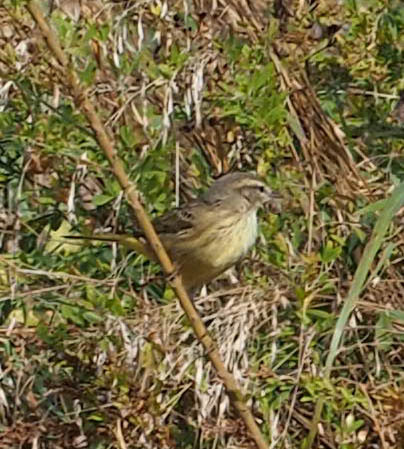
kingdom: Animalia
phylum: Chordata
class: Aves
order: Passeriformes
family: Parulidae
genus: Setophaga
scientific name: Setophaga palmarum
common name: Palm warbler
